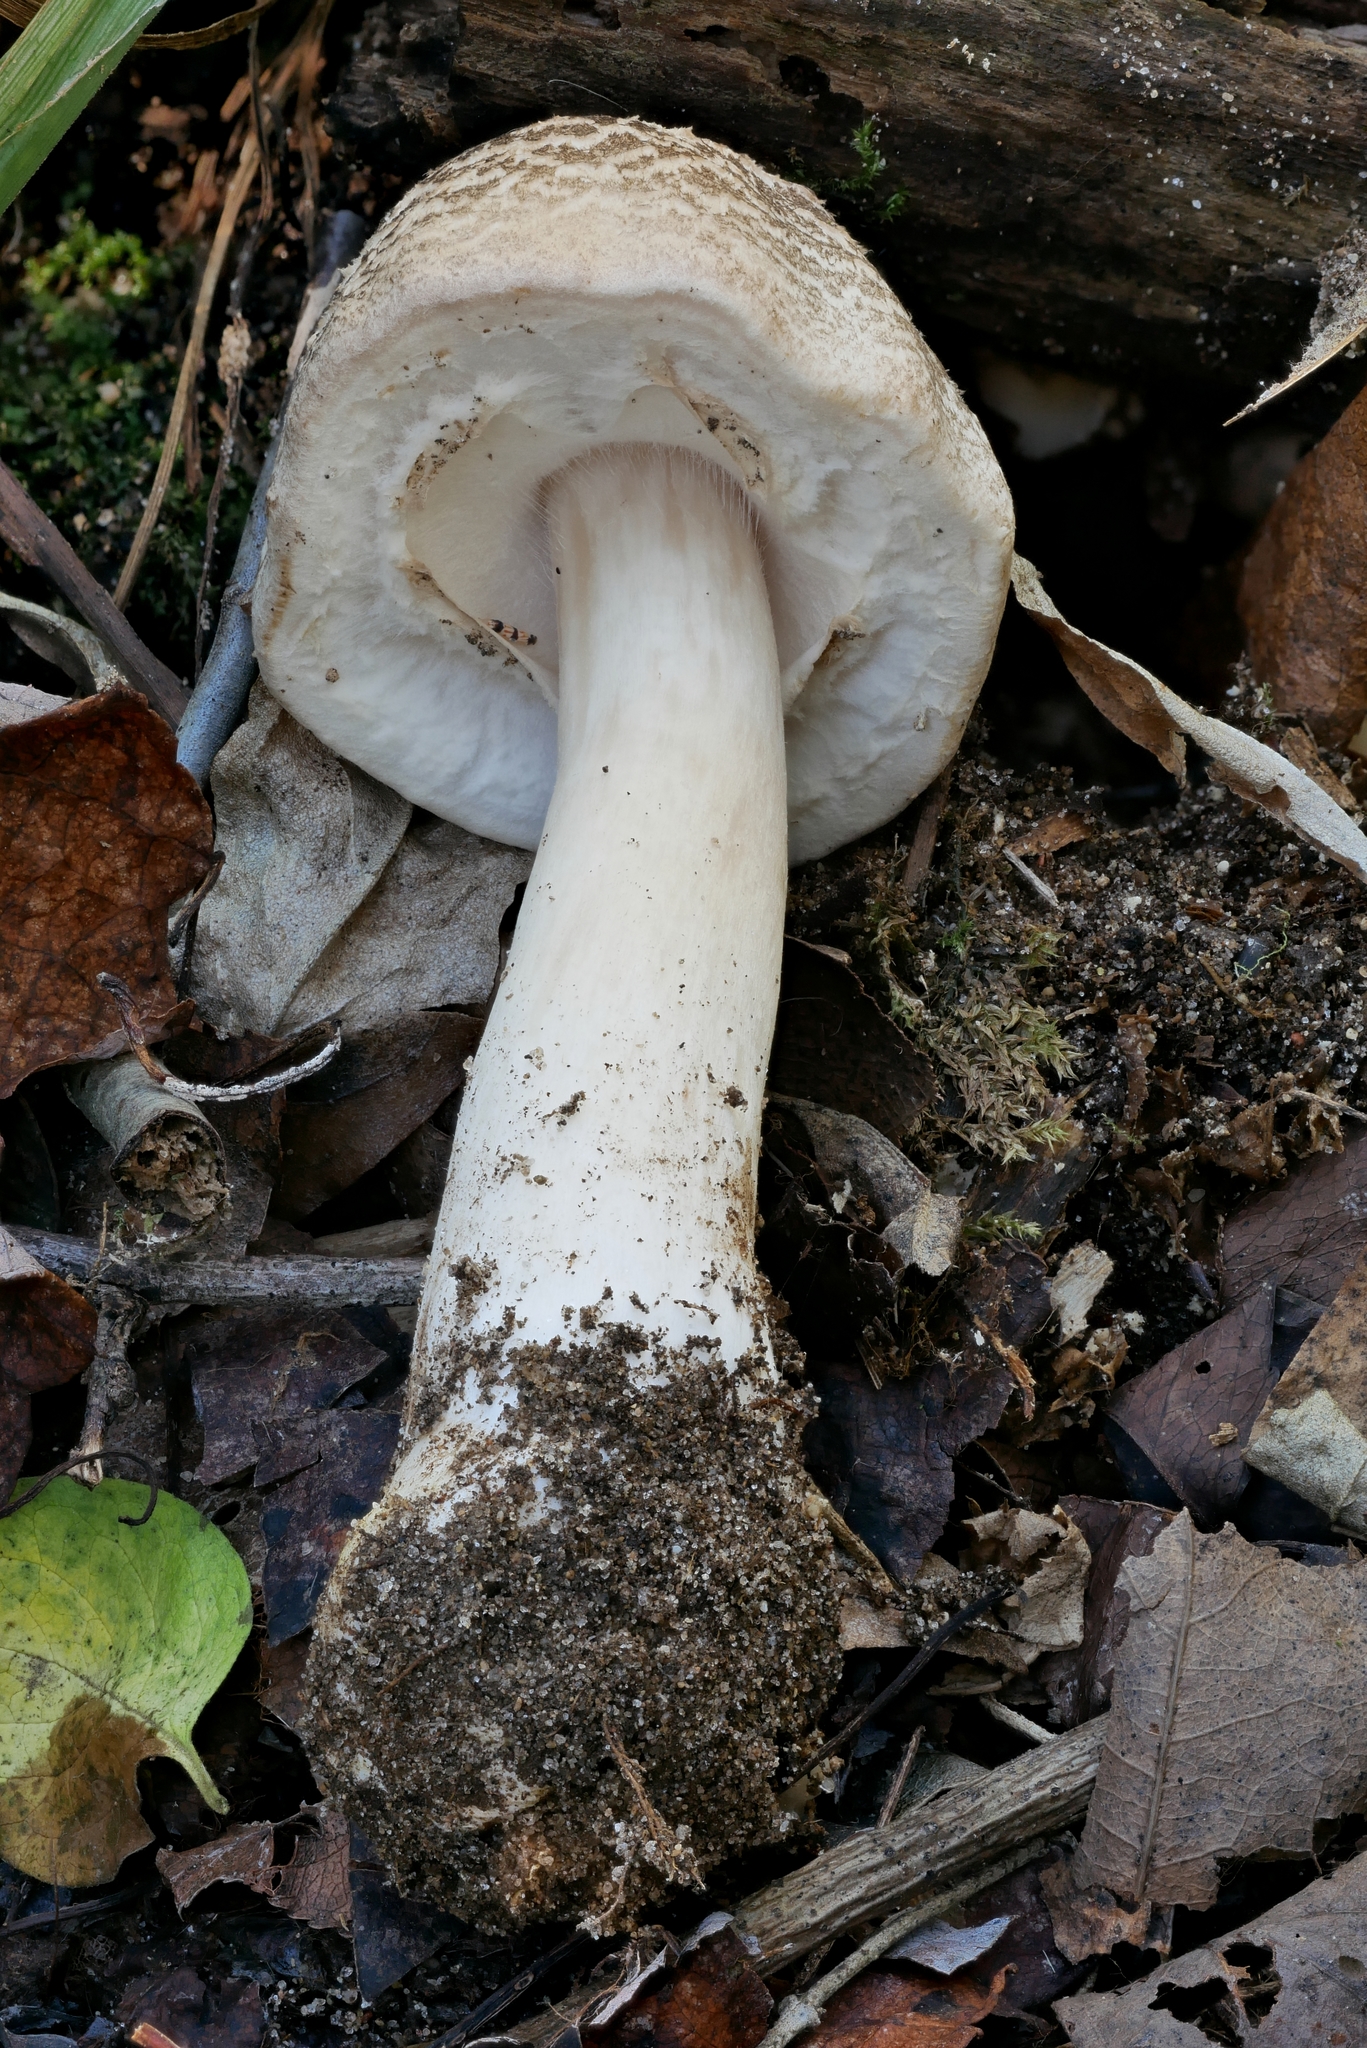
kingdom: Fungi
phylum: Basidiomycota
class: Agaricomycetes
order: Agaricales
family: Agaricaceae
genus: Agaricus
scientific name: Agaricus leptocaulis
